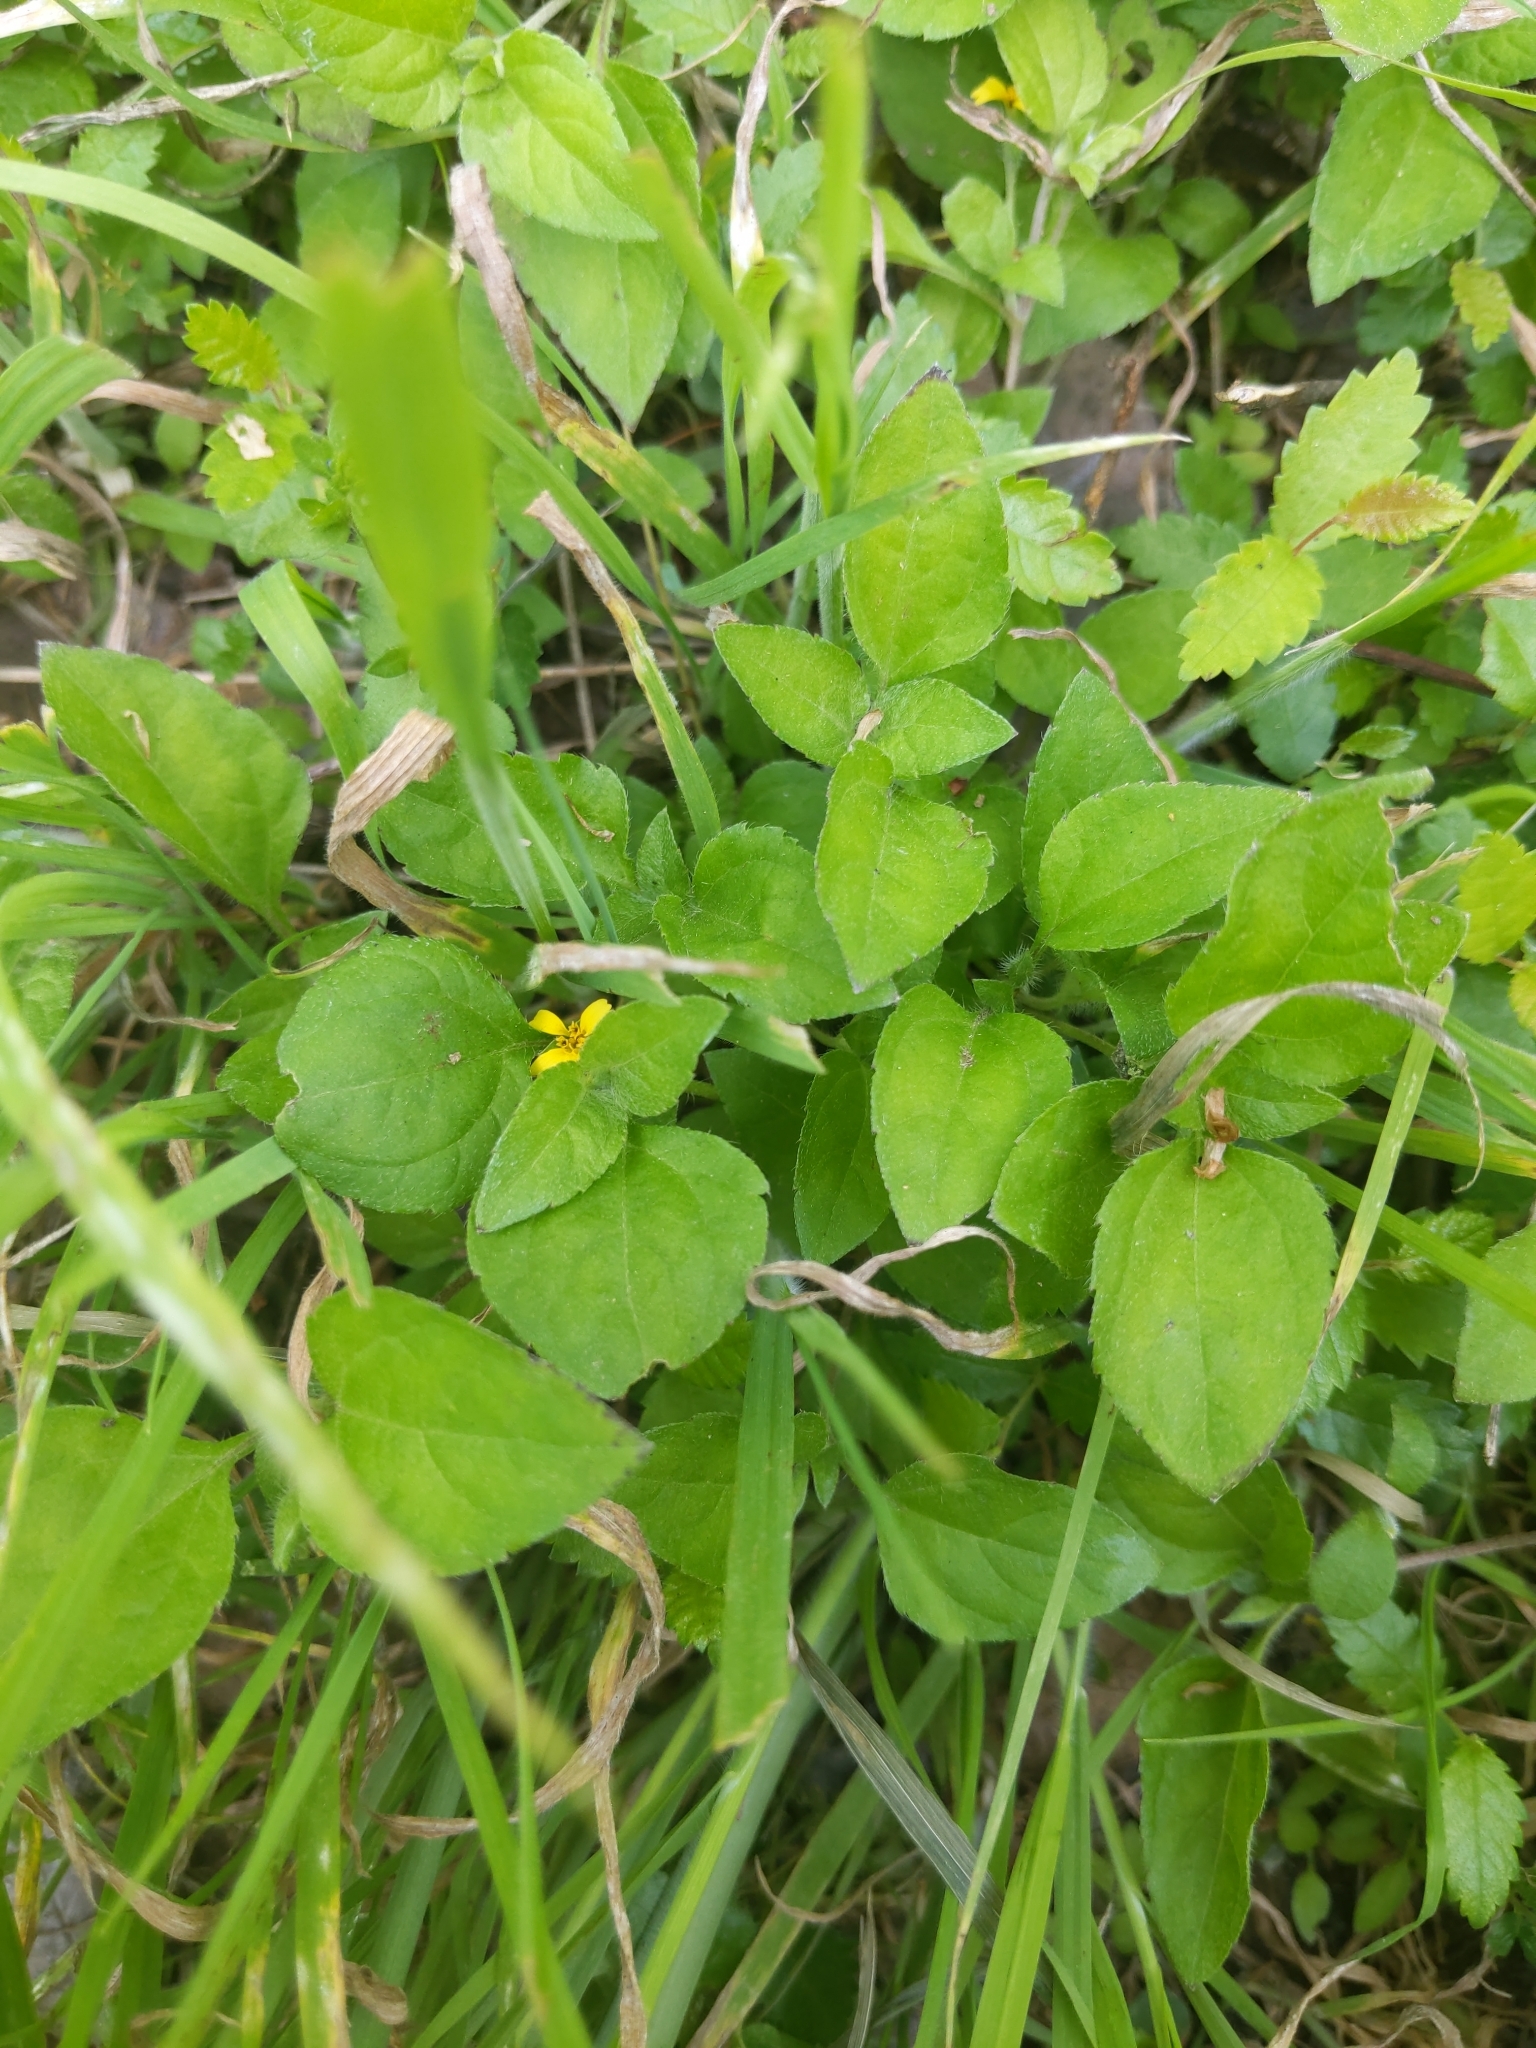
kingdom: Plantae
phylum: Tracheophyta
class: Magnoliopsida
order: Asterales
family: Asteraceae
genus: Calyptocarpus
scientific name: Calyptocarpus vialis
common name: Straggler daisy
